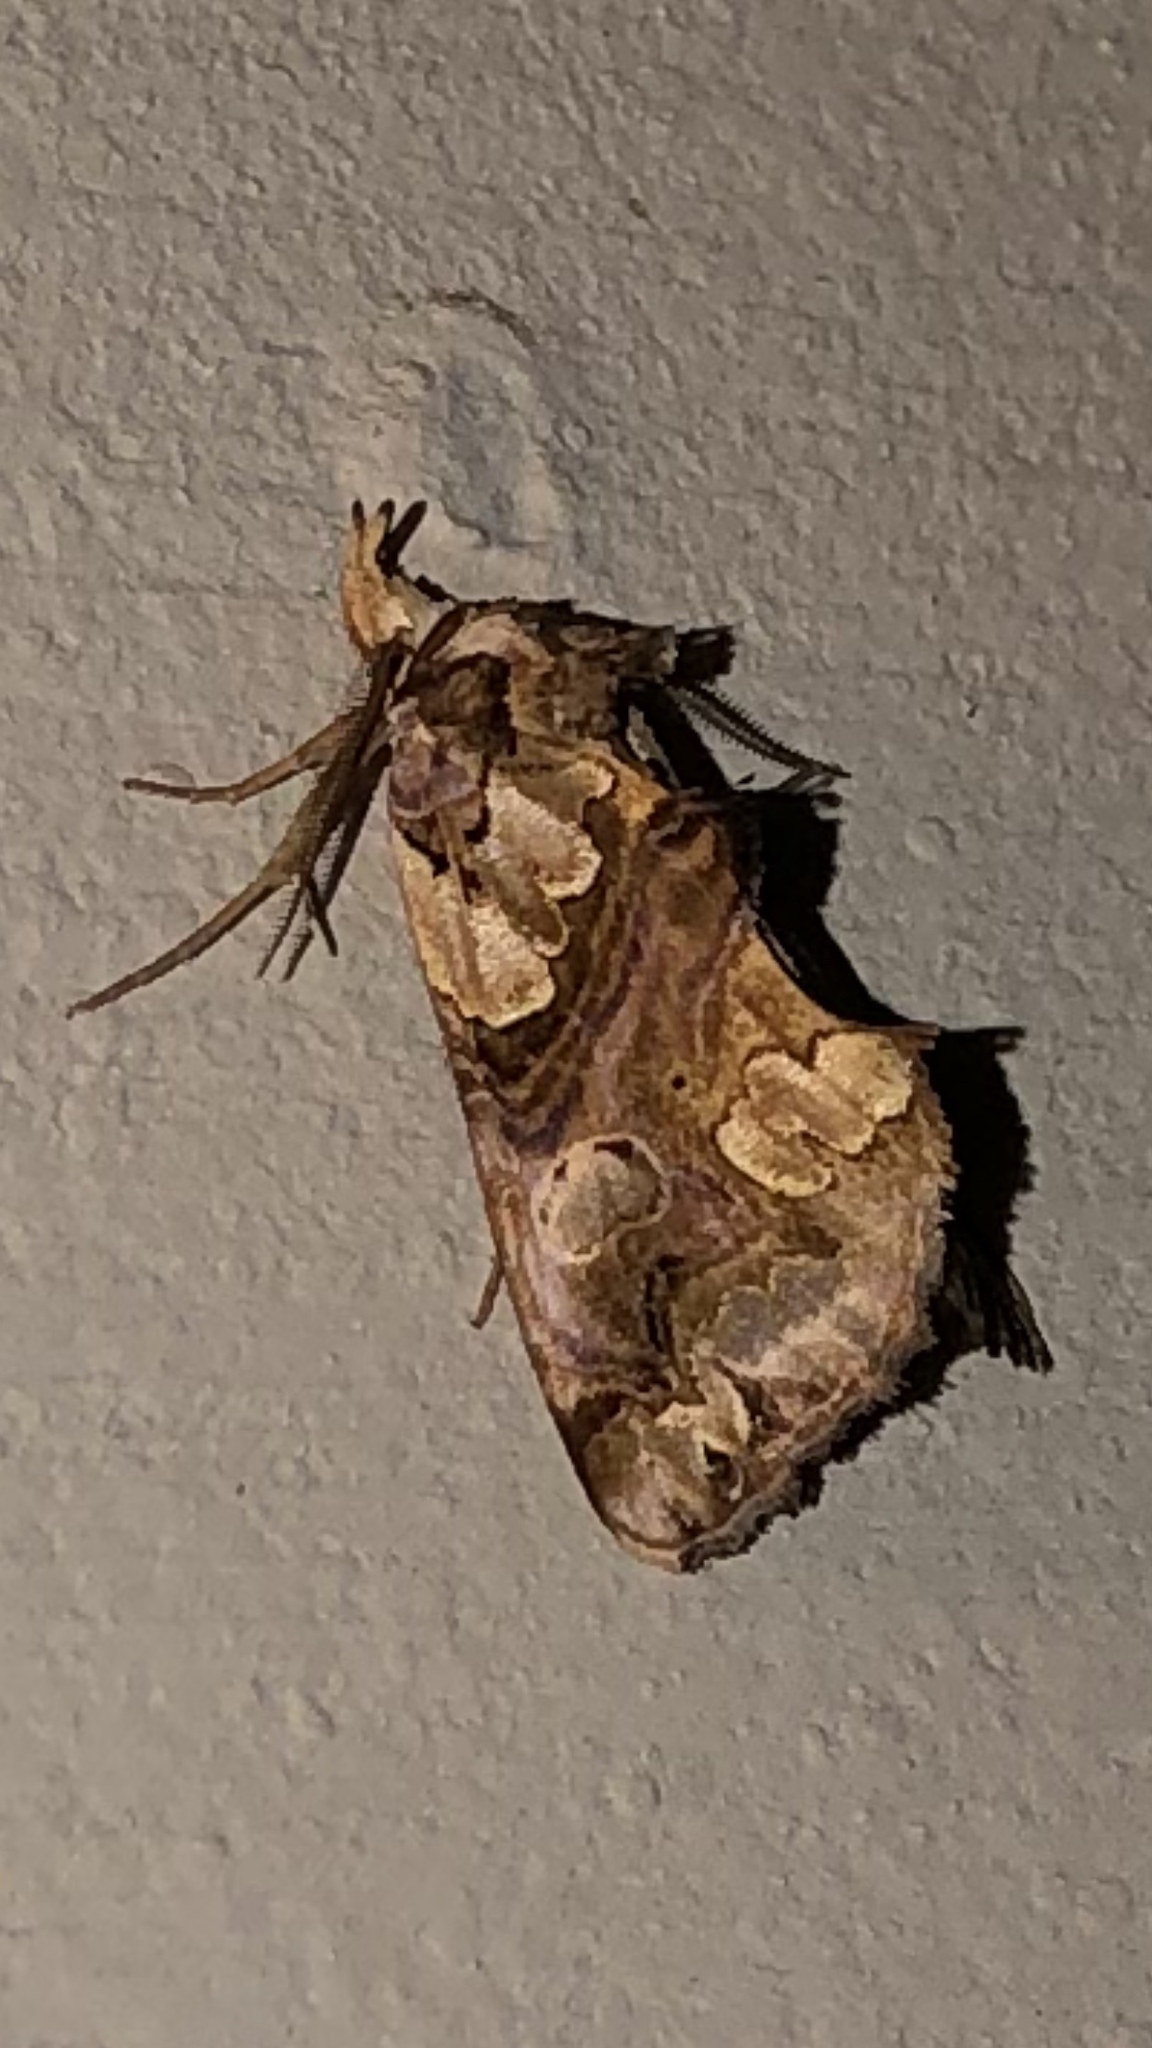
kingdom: Animalia
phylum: Arthropoda
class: Insecta
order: Lepidoptera
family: Erebidae
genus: Plusiodonta
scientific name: Plusiodonta compressipalpis
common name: Moonseed moth
